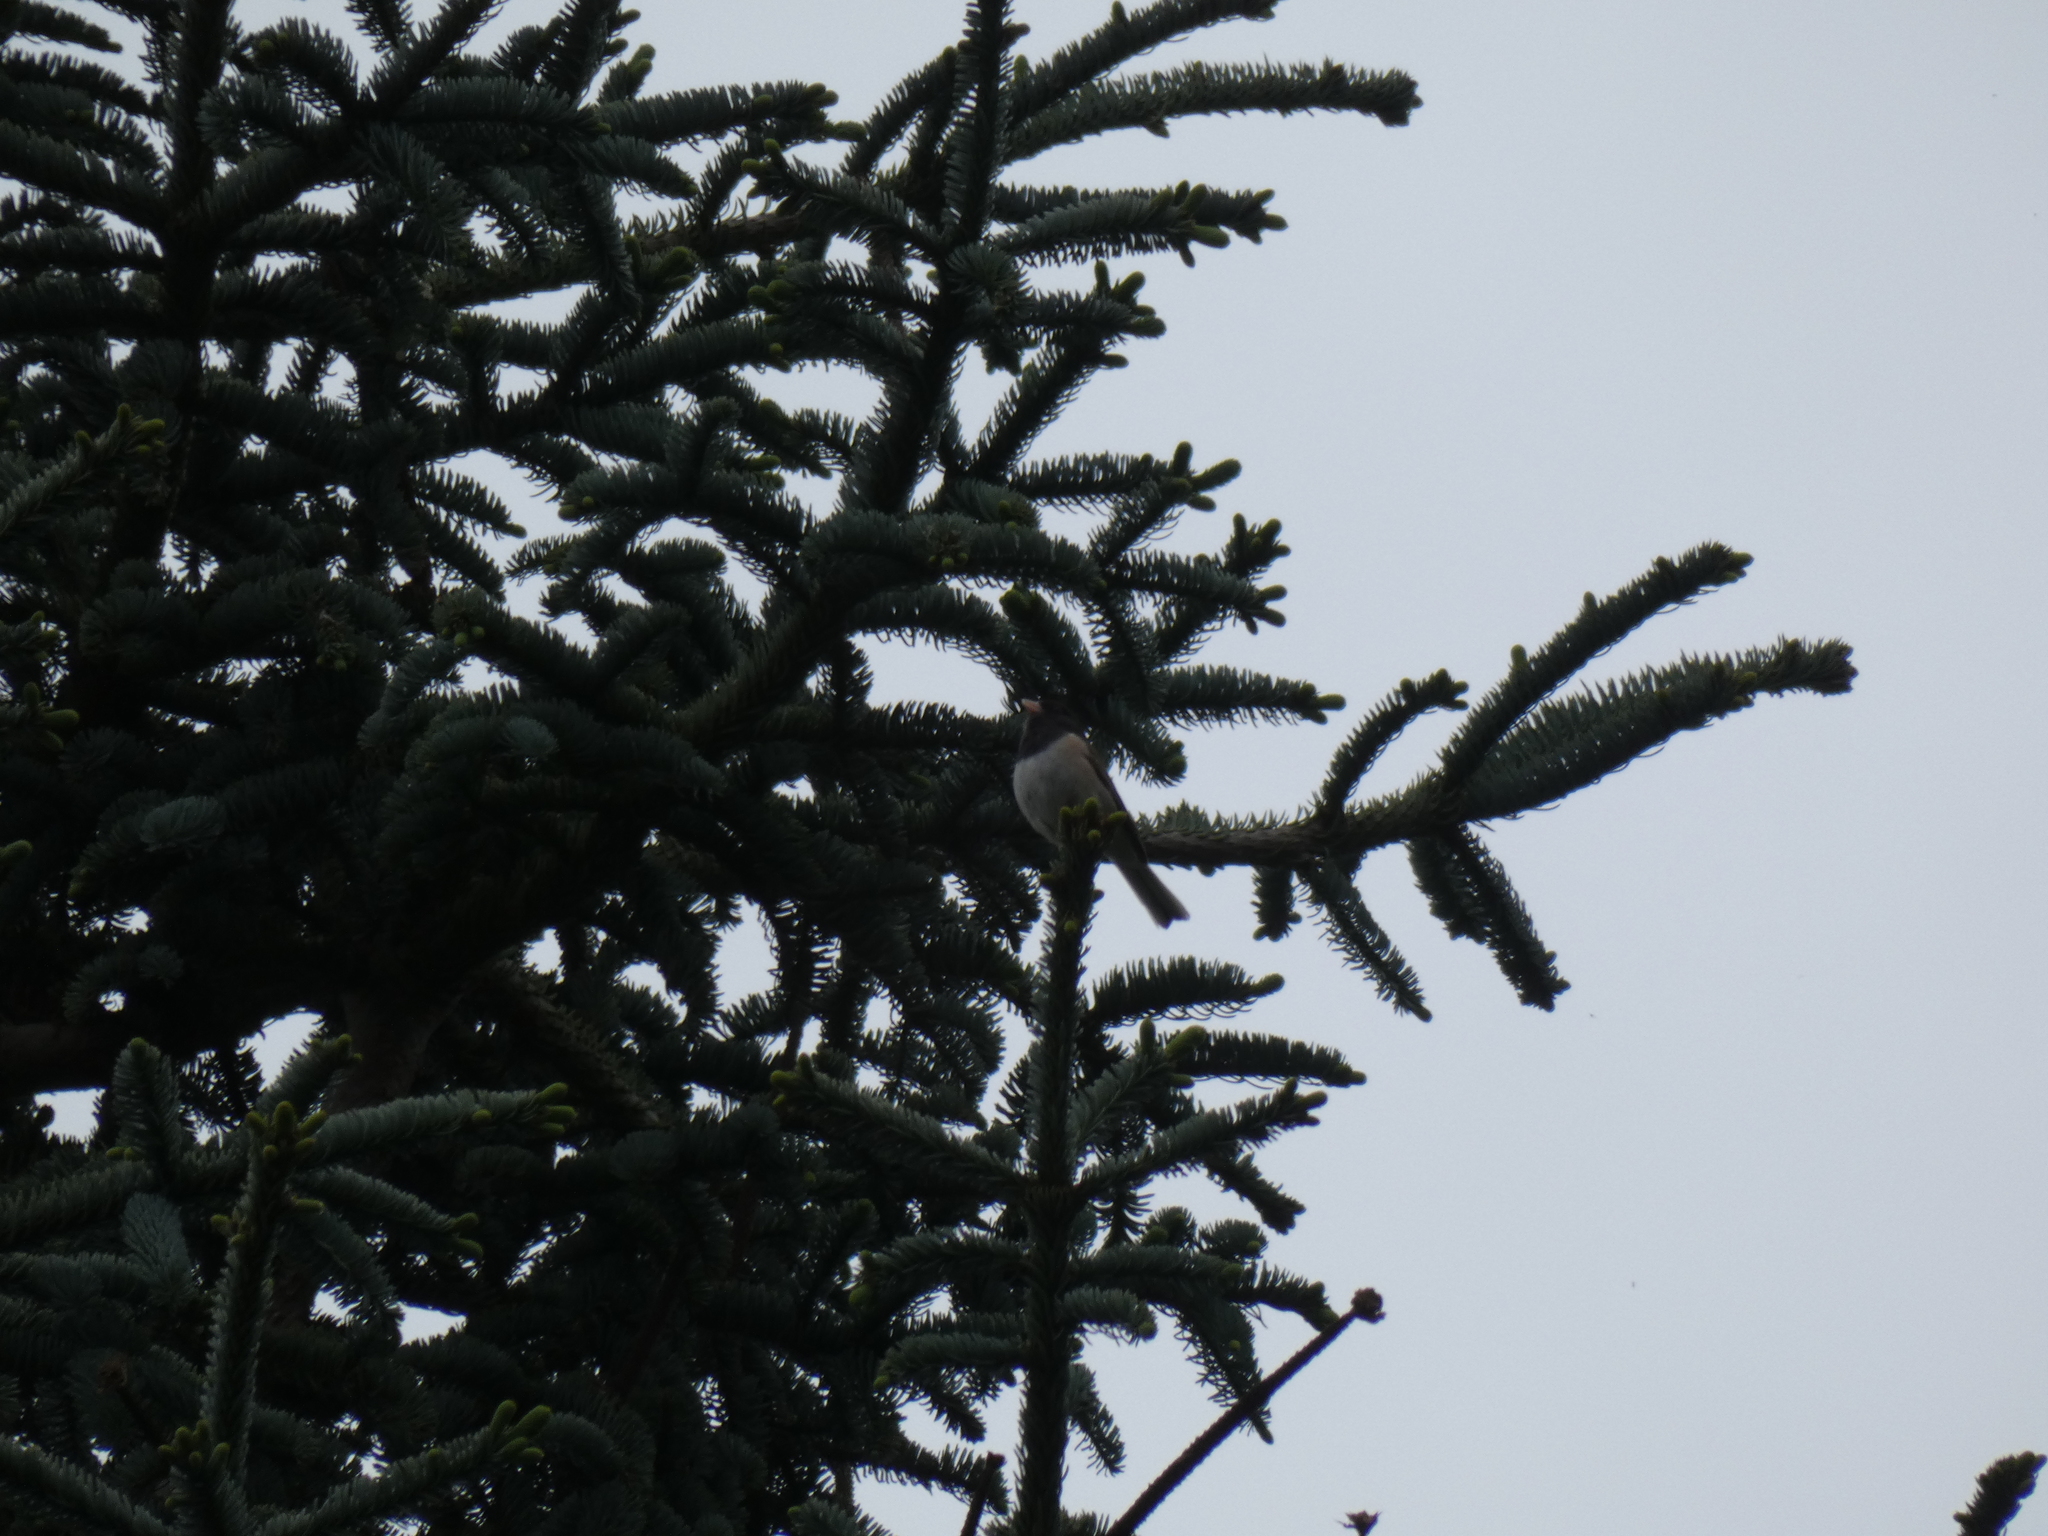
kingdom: Animalia
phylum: Chordata
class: Aves
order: Passeriformes
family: Passerellidae
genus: Junco
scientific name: Junco hyemalis
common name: Dark-eyed junco
